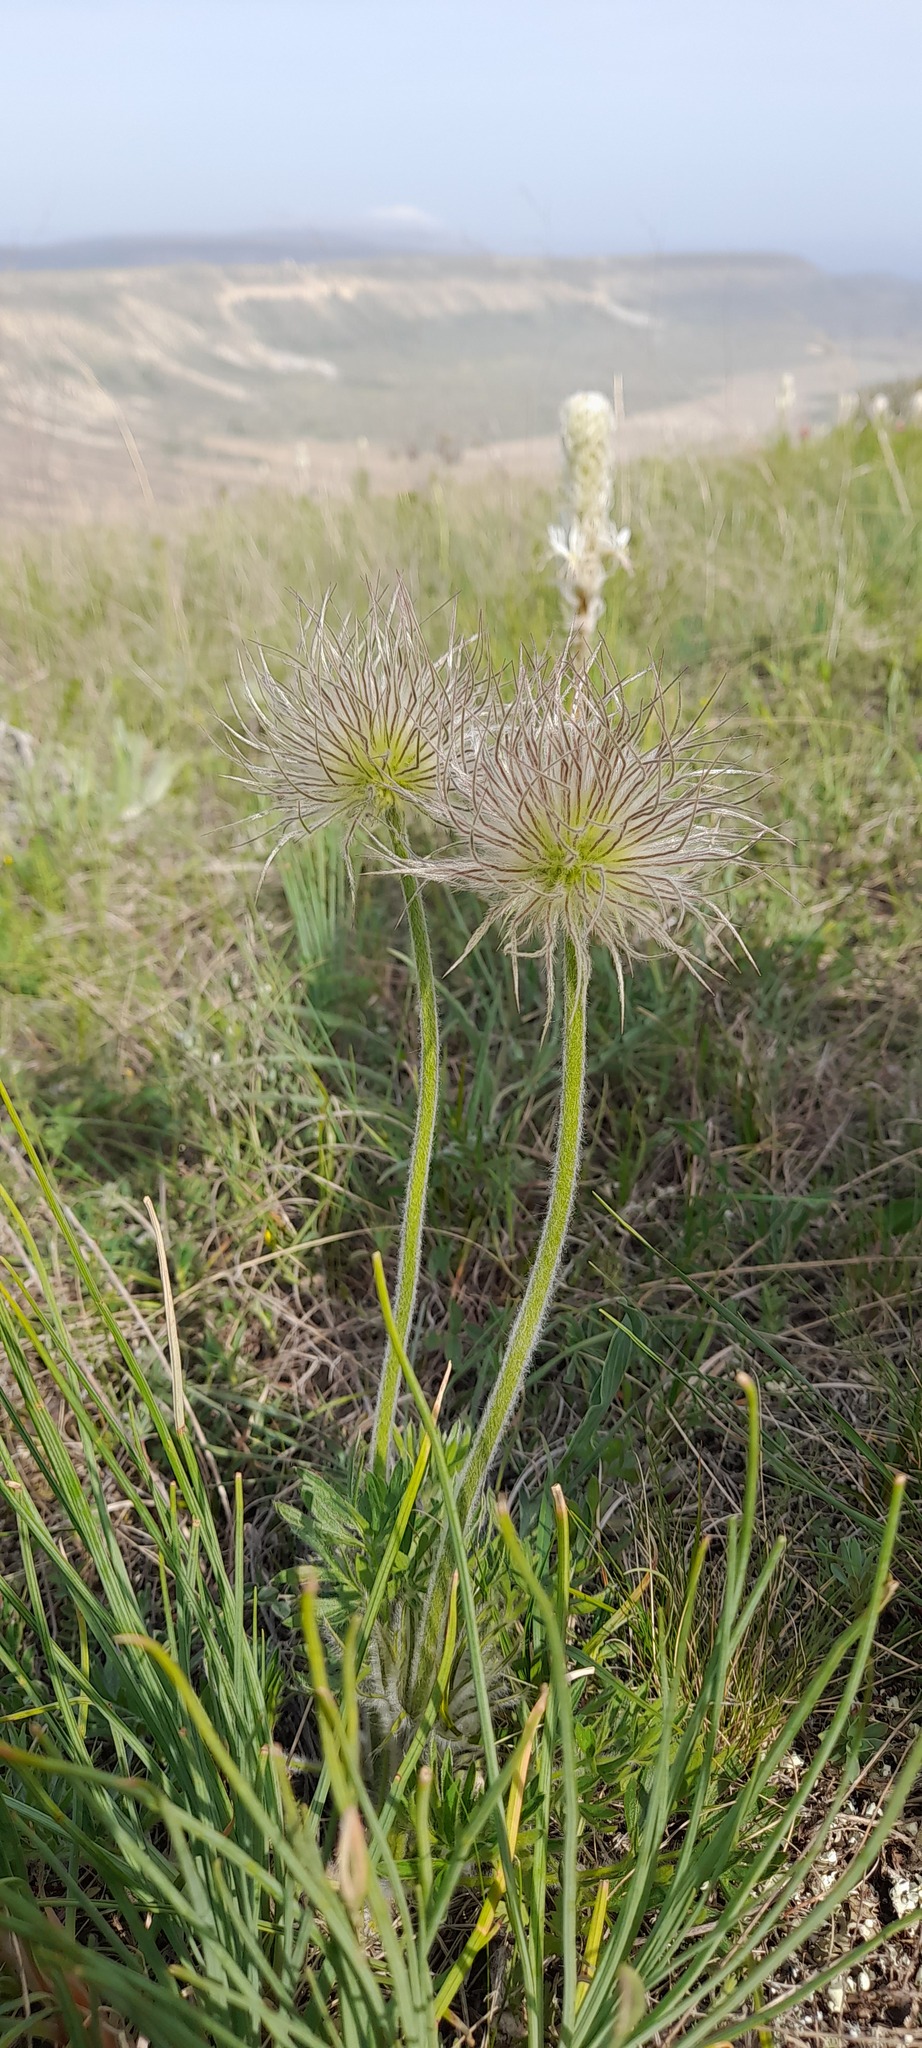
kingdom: Plantae
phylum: Tracheophyta
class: Magnoliopsida
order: Ranunculales
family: Ranunculaceae
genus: Pulsatilla
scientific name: Pulsatilla halleri
